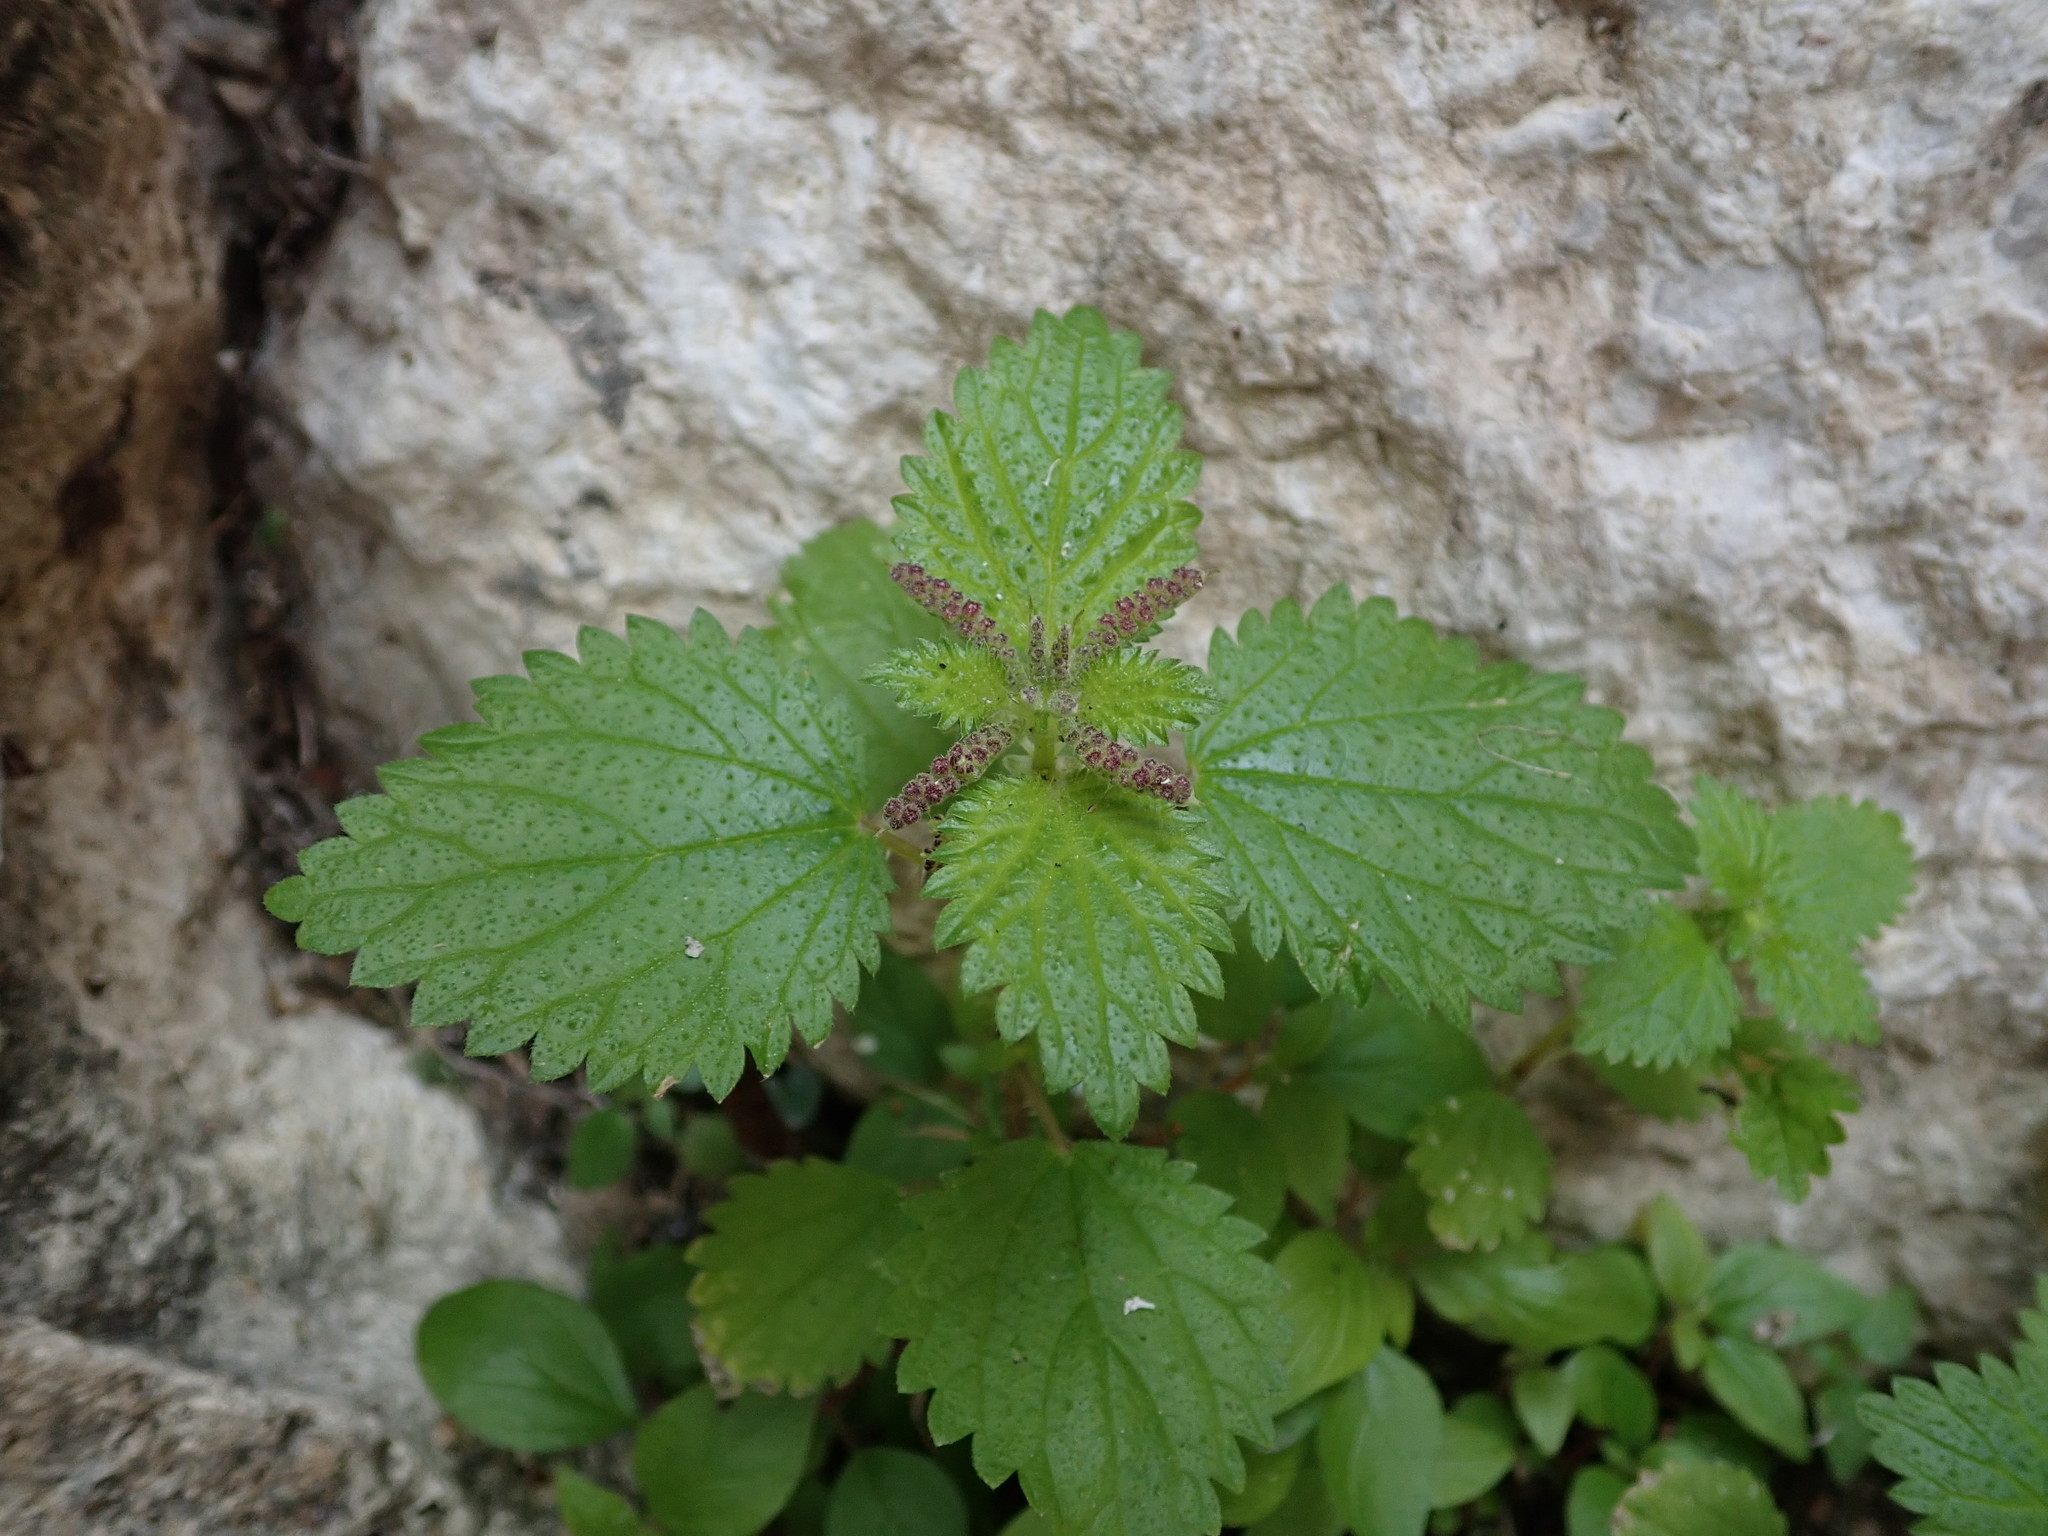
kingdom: Plantae
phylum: Tracheophyta
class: Magnoliopsida
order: Rosales
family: Urticaceae
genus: Urtica
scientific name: Urtica membranacea
